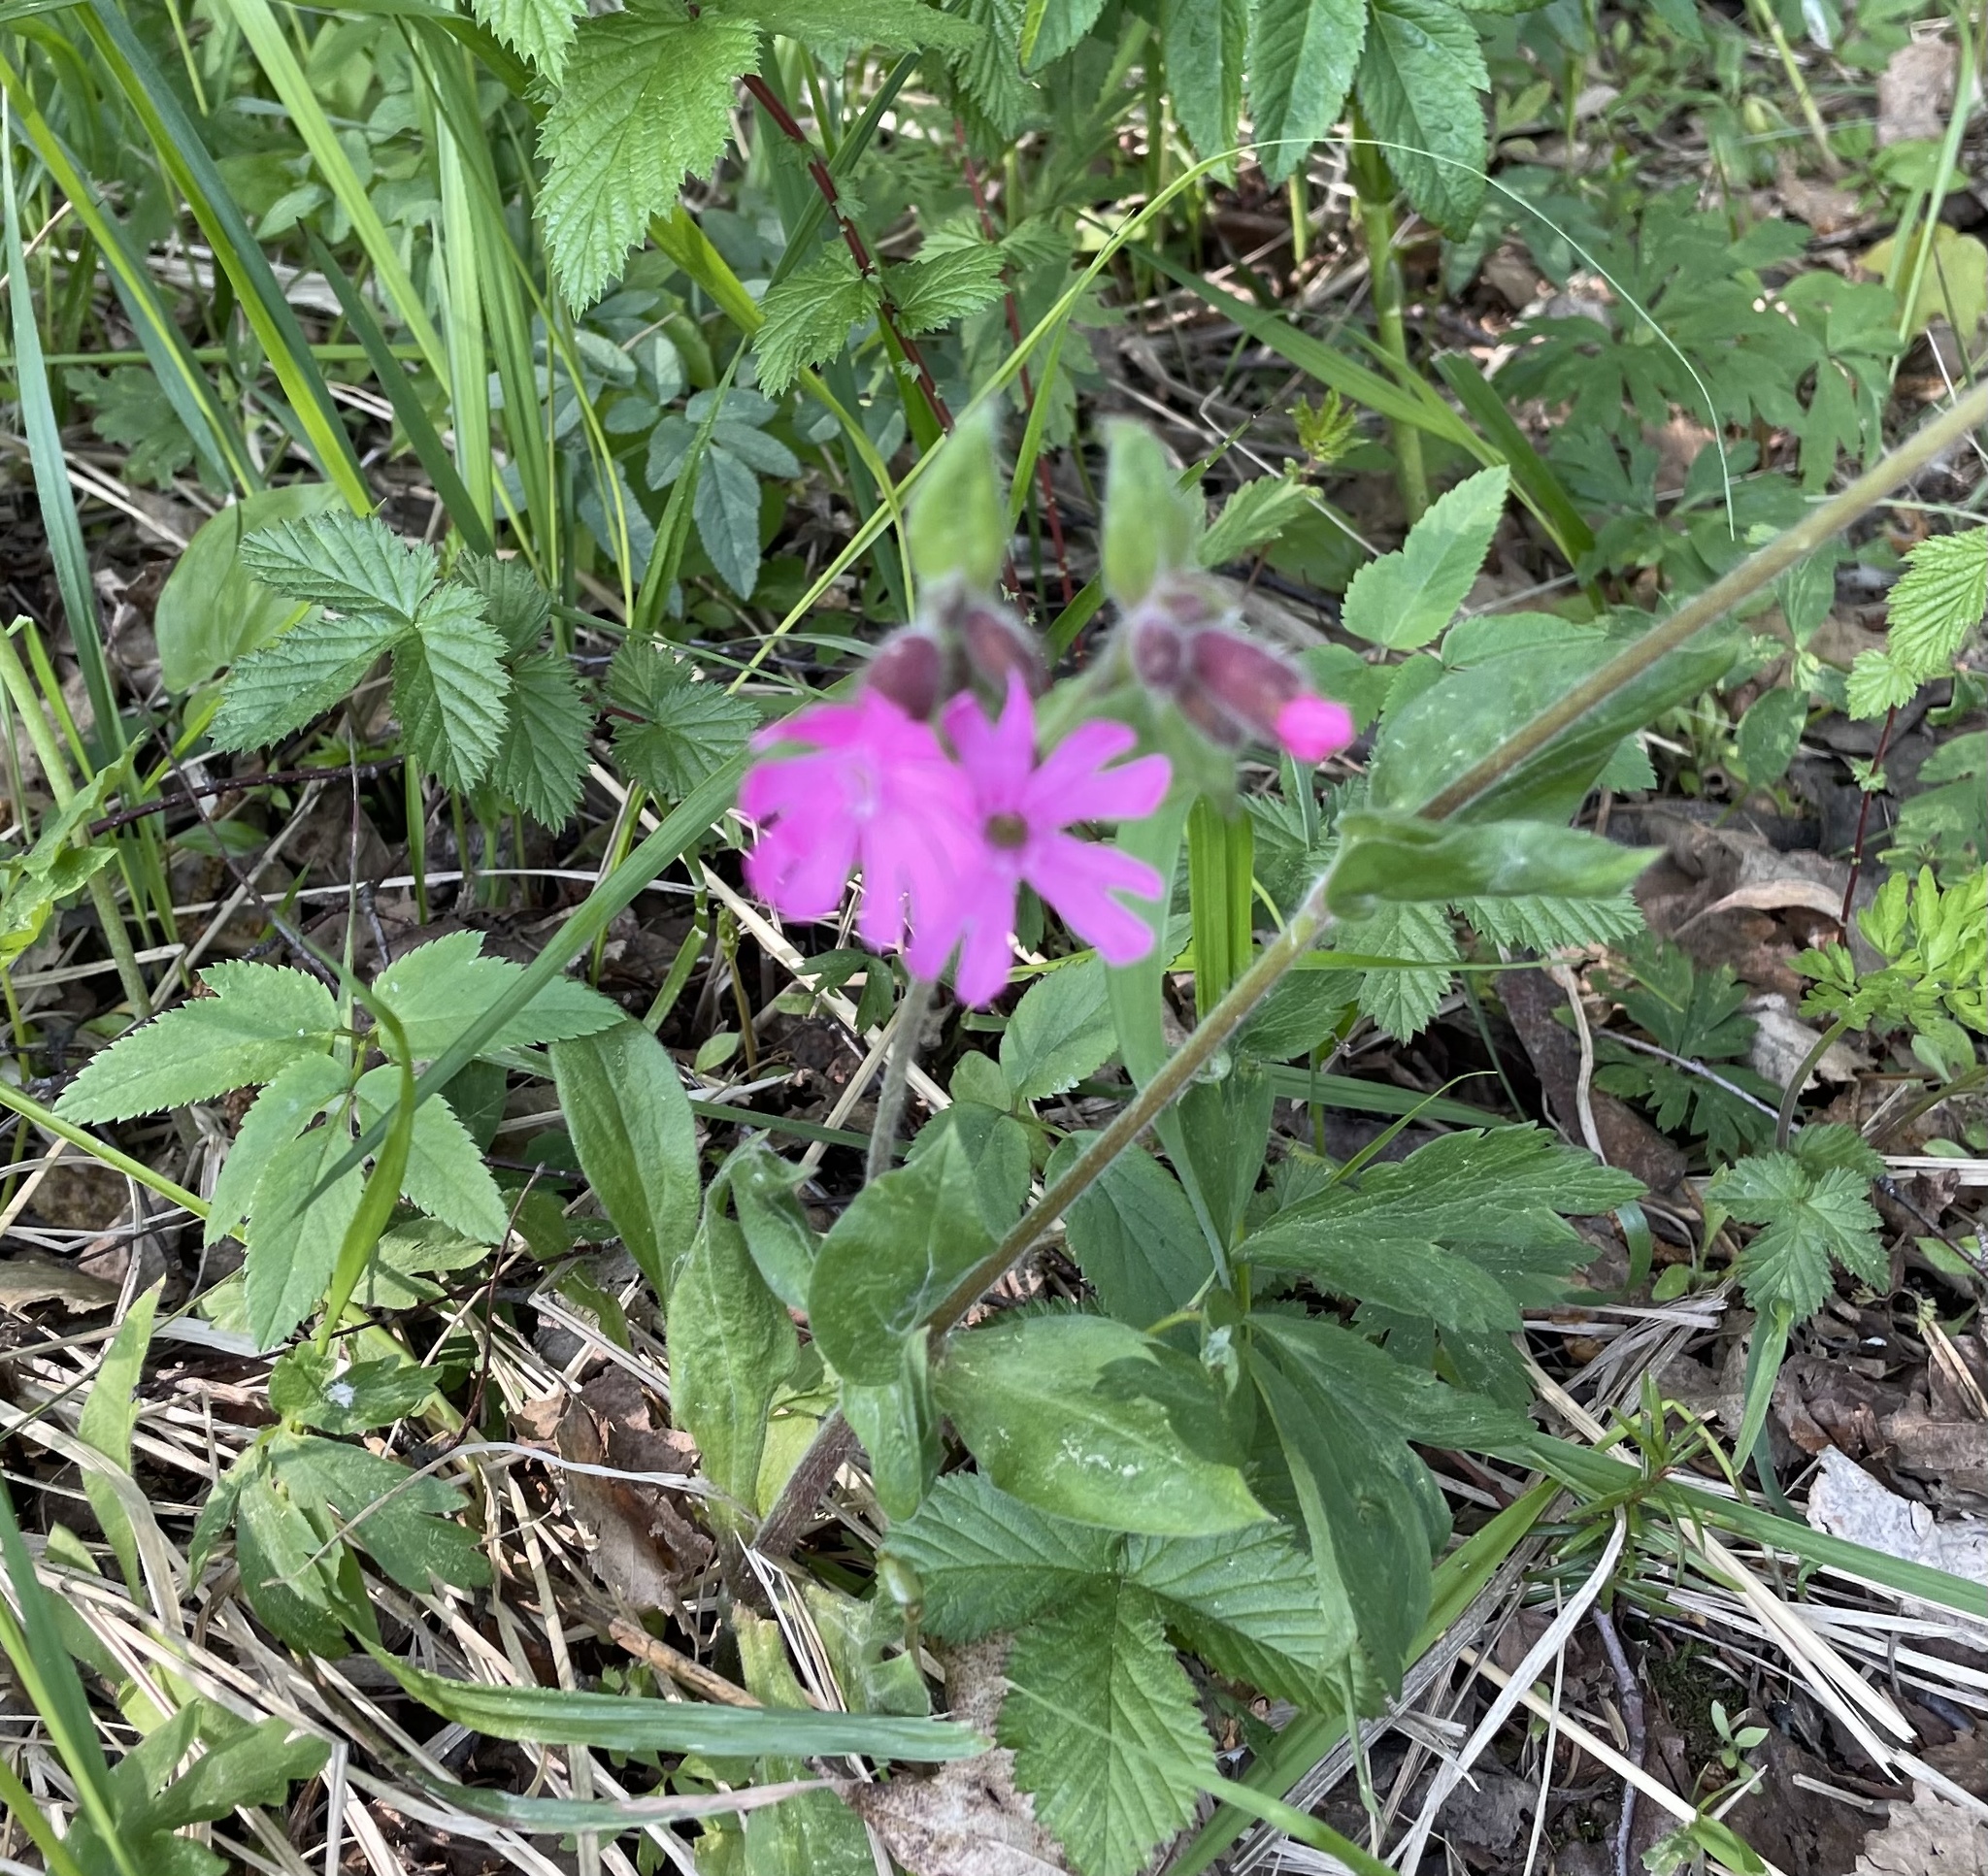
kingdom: Plantae
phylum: Tracheophyta
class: Magnoliopsida
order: Caryophyllales
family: Caryophyllaceae
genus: Silene
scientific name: Silene dioica
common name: Red campion
